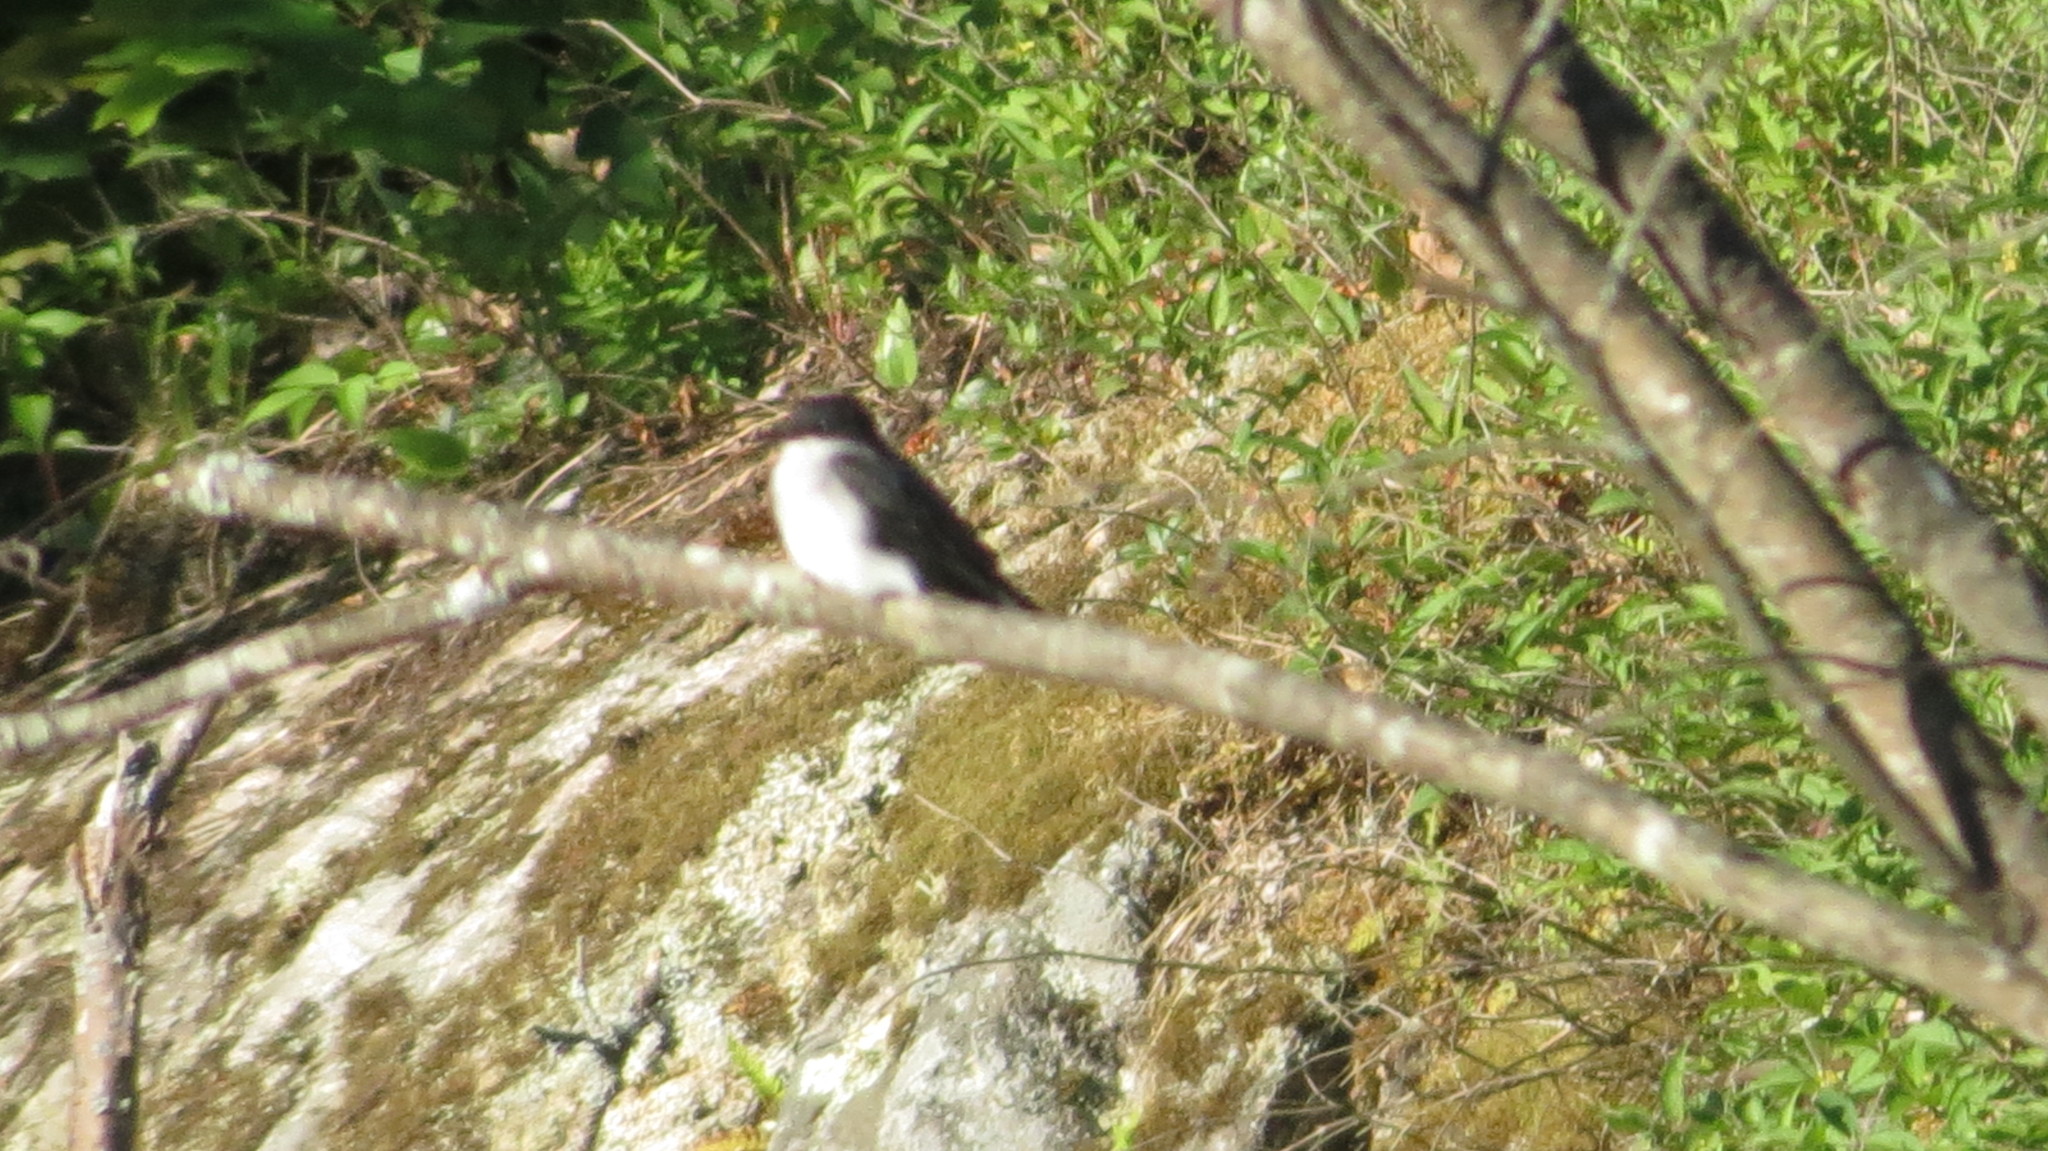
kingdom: Animalia
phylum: Chordata
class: Aves
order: Passeriformes
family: Tyrannidae
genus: Tyrannus
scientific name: Tyrannus tyrannus
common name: Eastern kingbird
